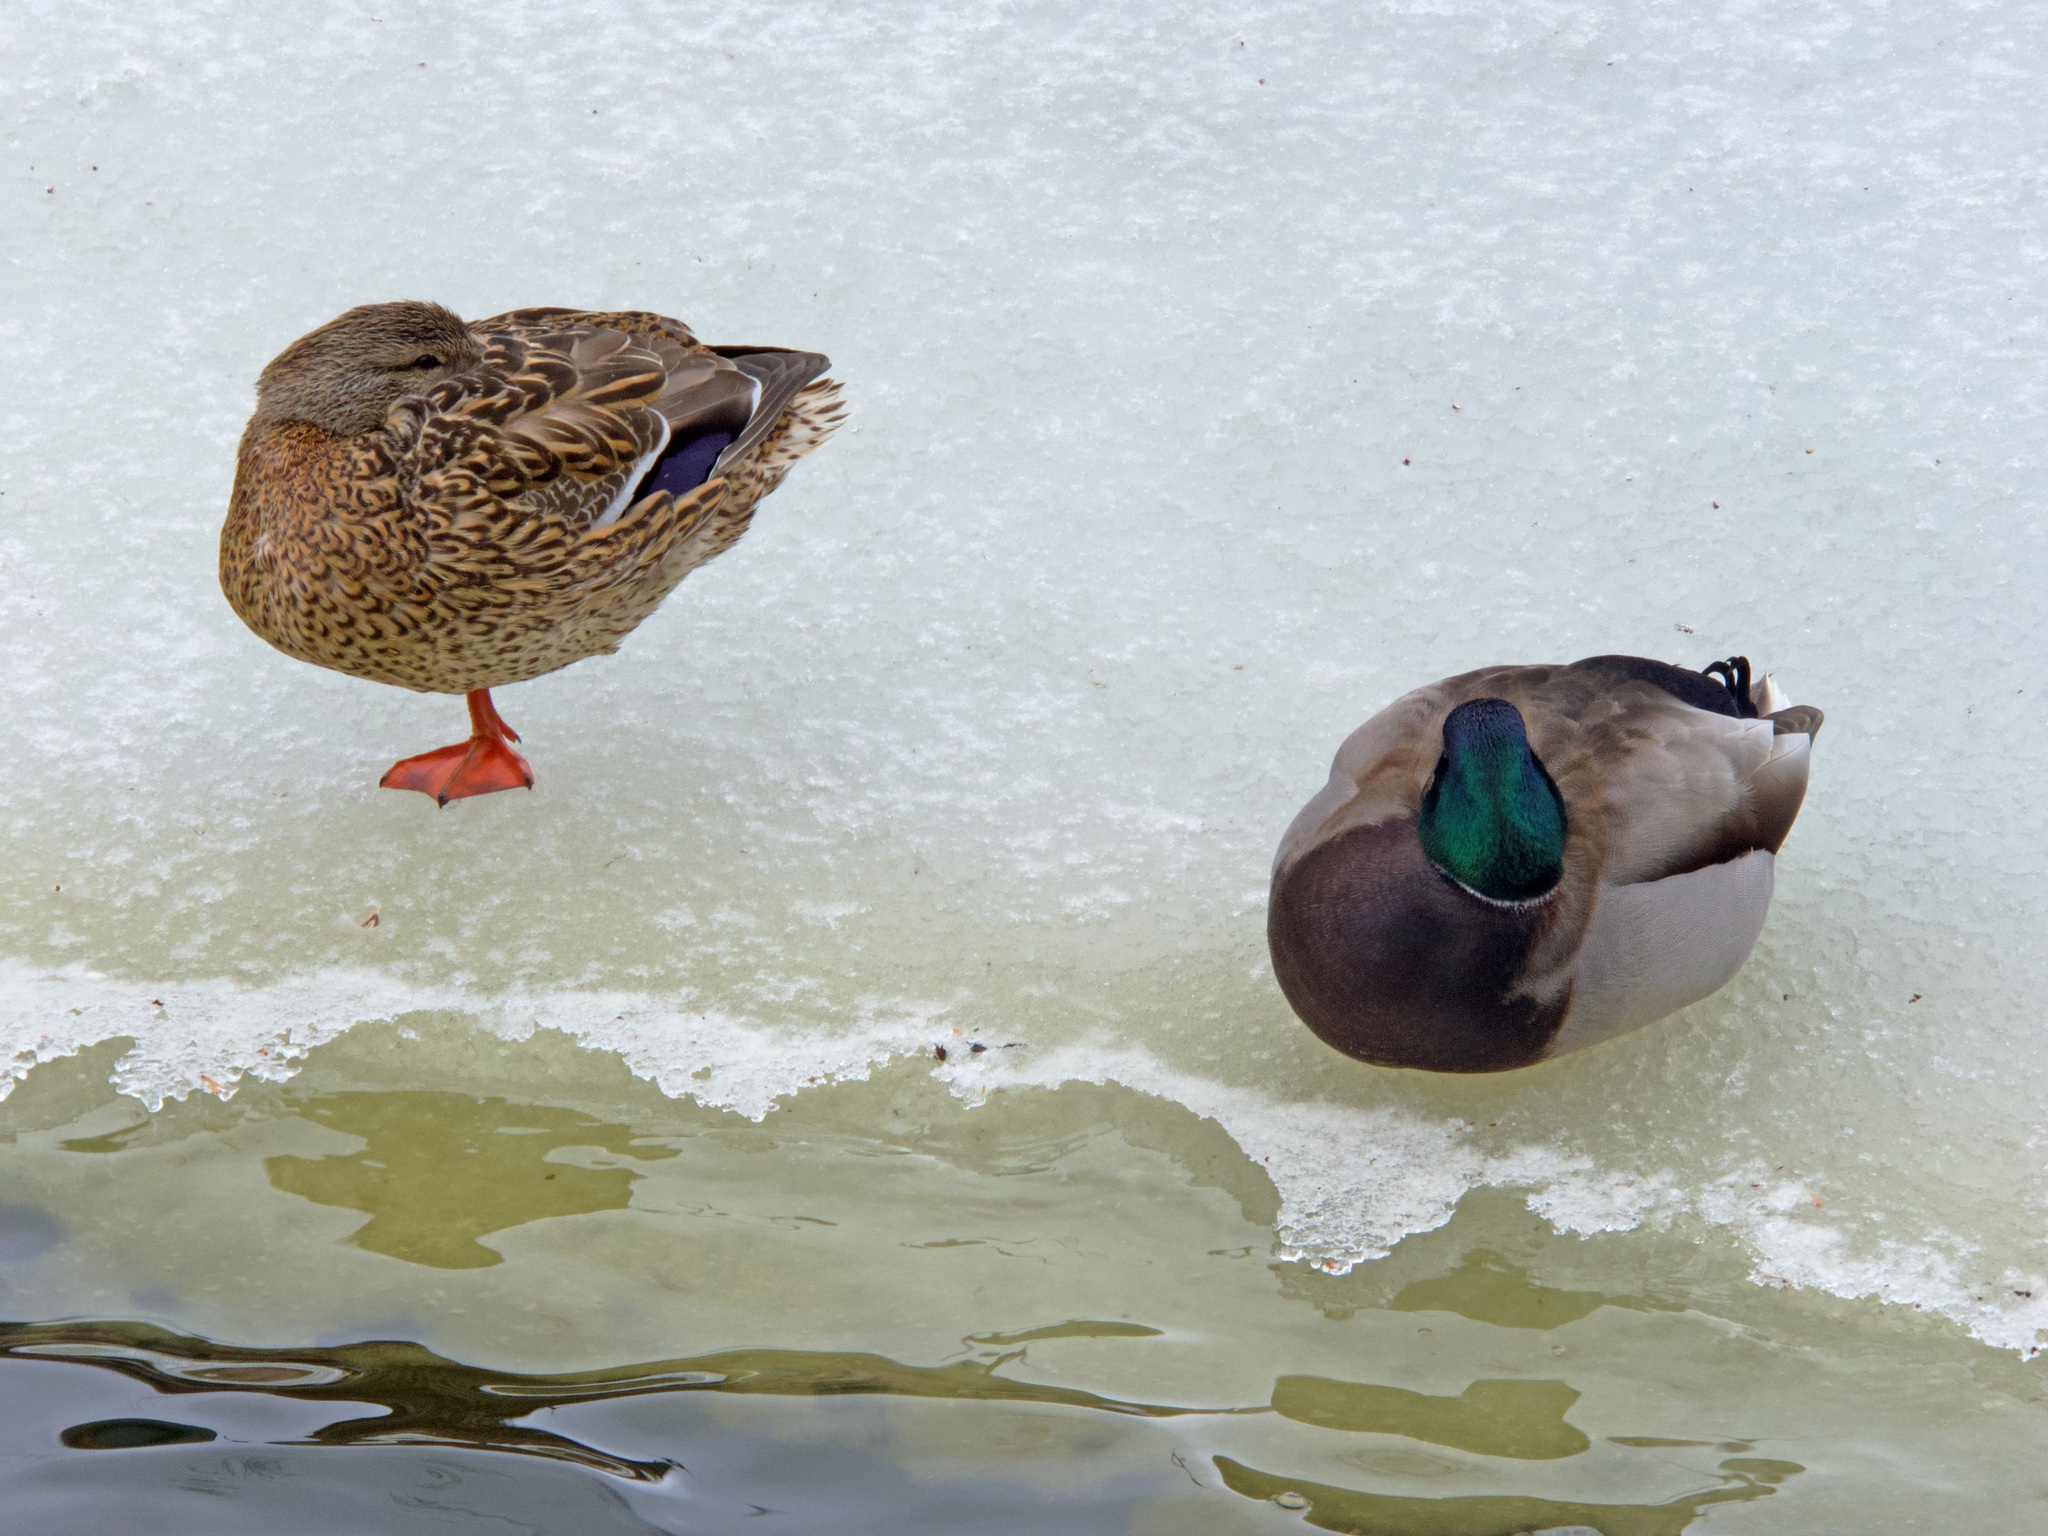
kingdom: Animalia
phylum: Chordata
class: Aves
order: Anseriformes
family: Anatidae
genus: Anas
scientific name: Anas platyrhynchos
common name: Mallard
